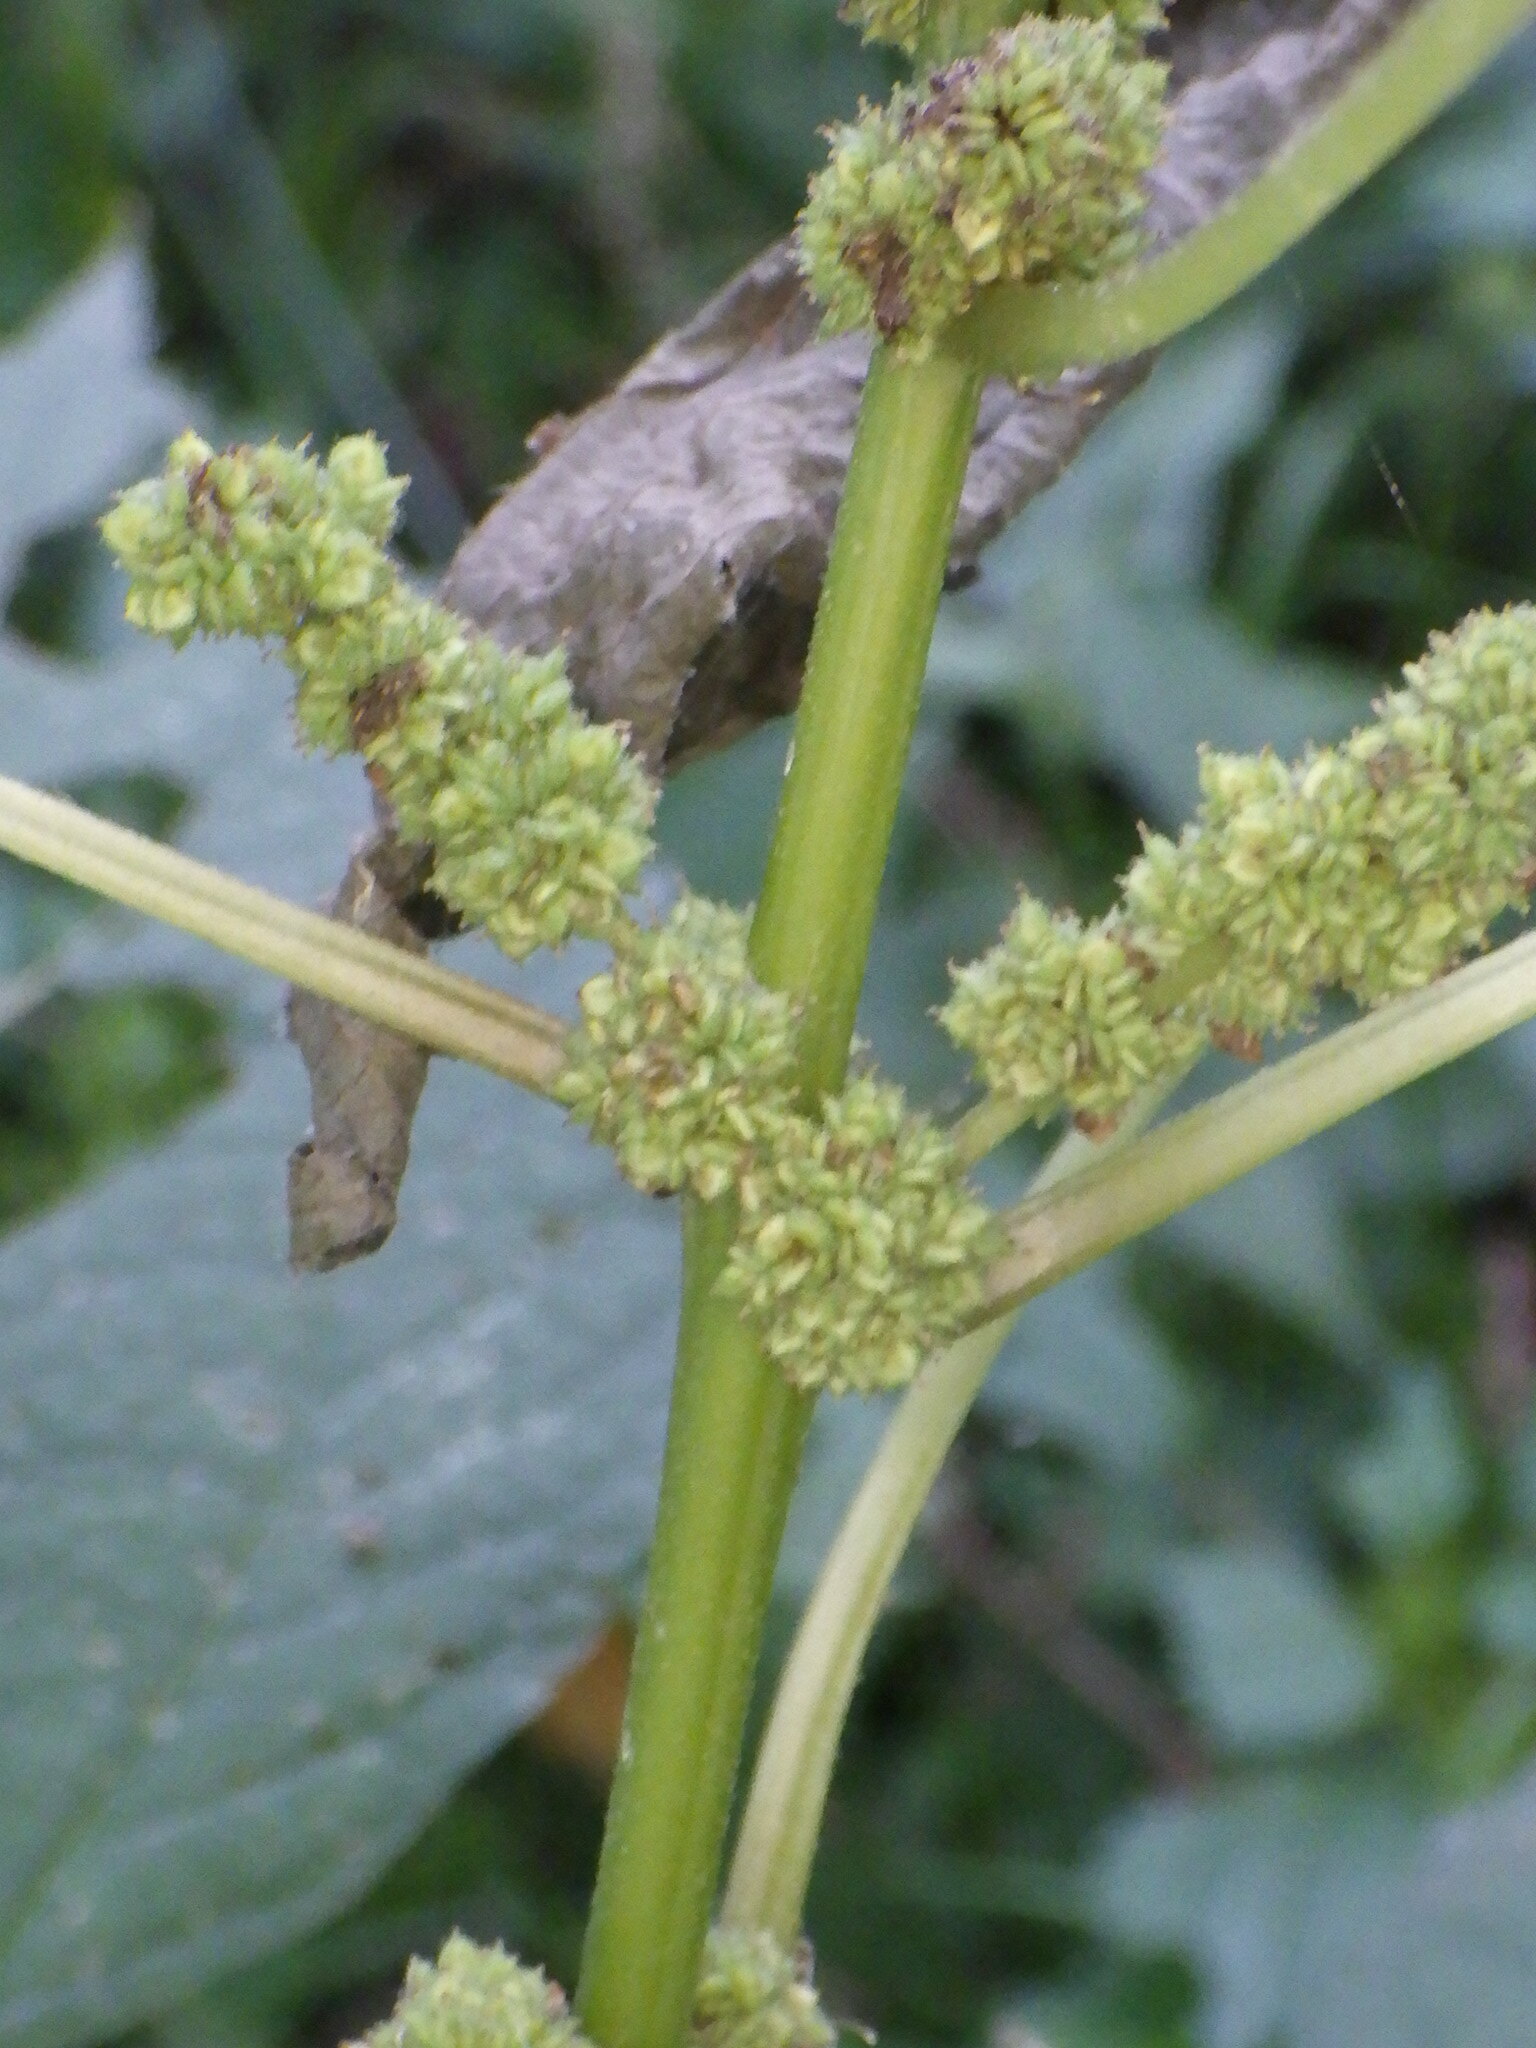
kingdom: Plantae
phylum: Tracheophyta
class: Magnoliopsida
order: Rosales
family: Urticaceae
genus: Boehmeria
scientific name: Boehmeria cylindrica
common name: Bog-hemp
